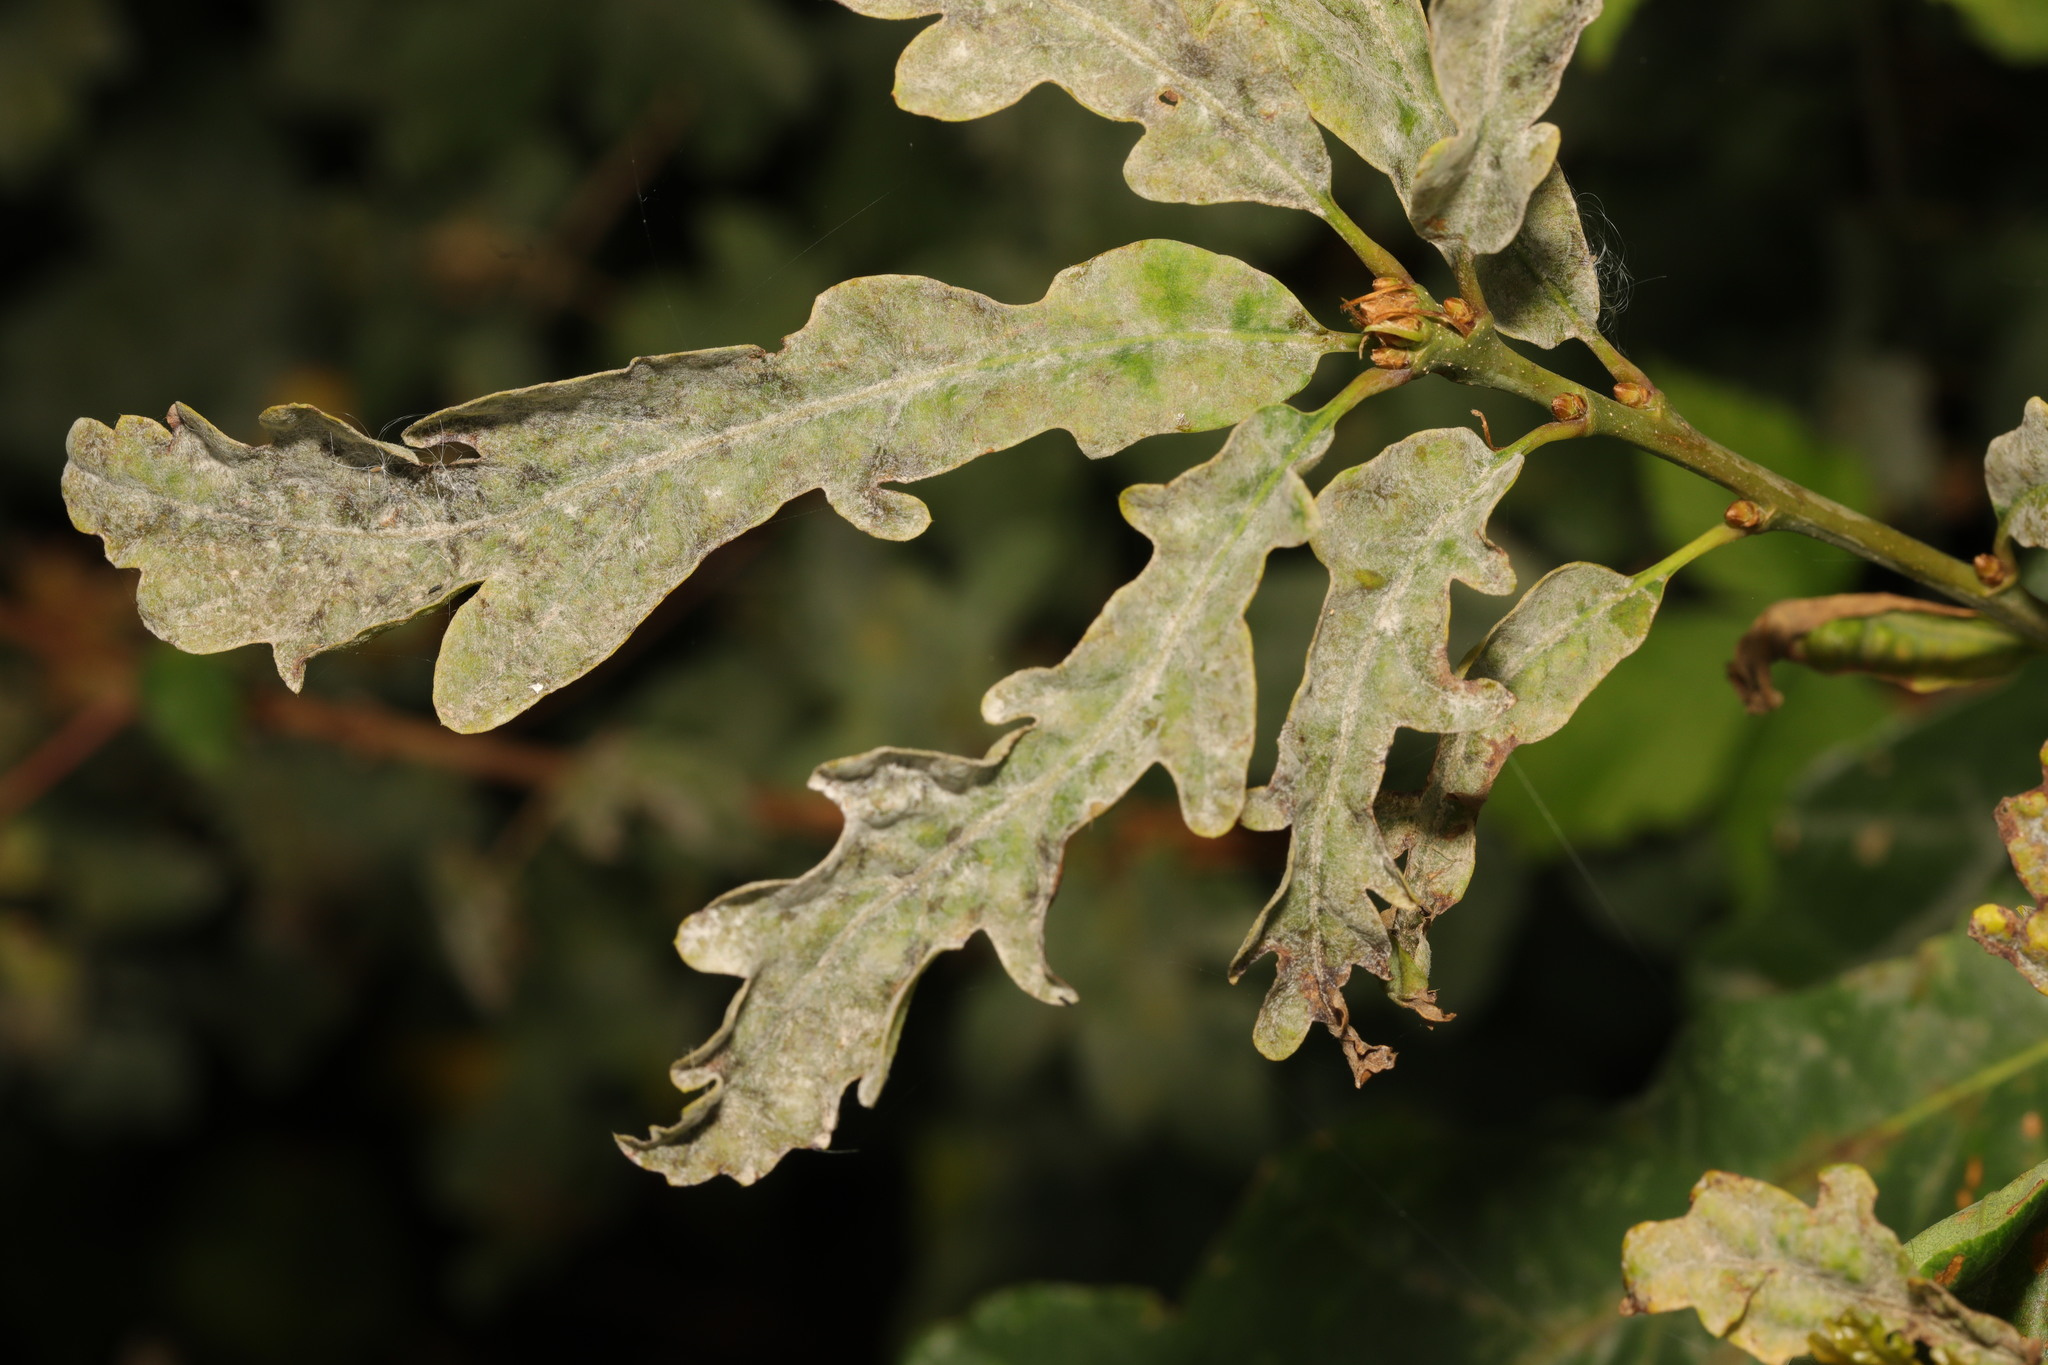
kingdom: Fungi
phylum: Ascomycota
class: Leotiomycetes
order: Helotiales
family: Erysiphaceae
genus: Erysiphe
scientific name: Erysiphe alphitoides
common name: Oak mildew
